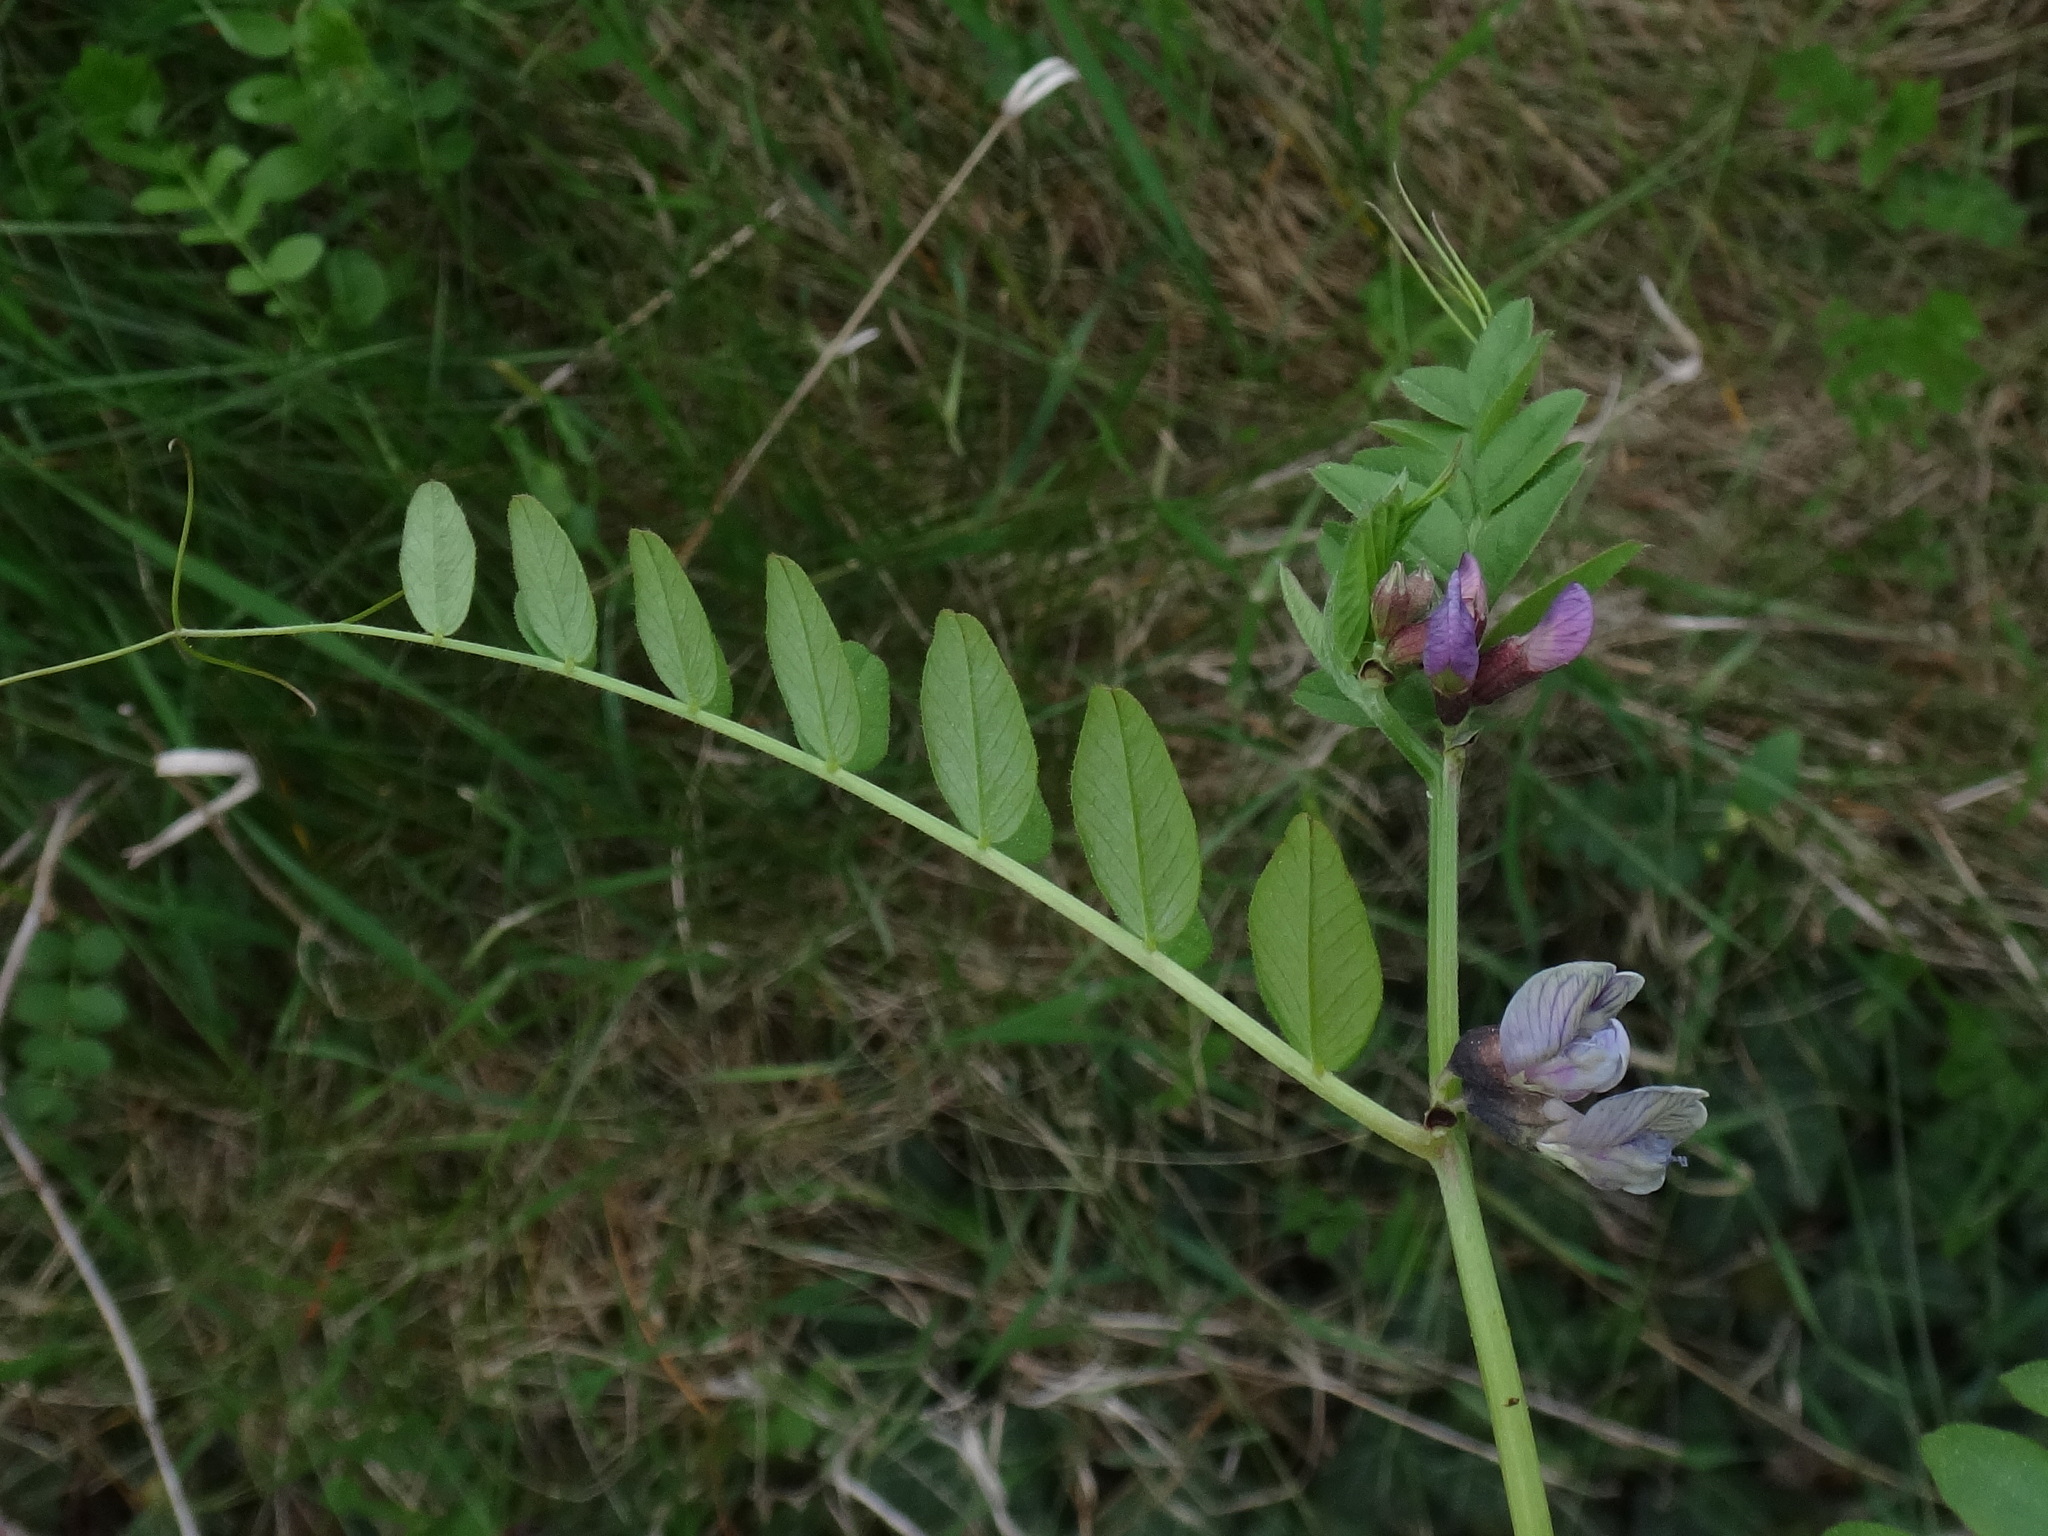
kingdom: Plantae
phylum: Tracheophyta
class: Magnoliopsida
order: Fabales
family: Fabaceae
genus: Vicia
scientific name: Vicia sepium
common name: Bush vetch
